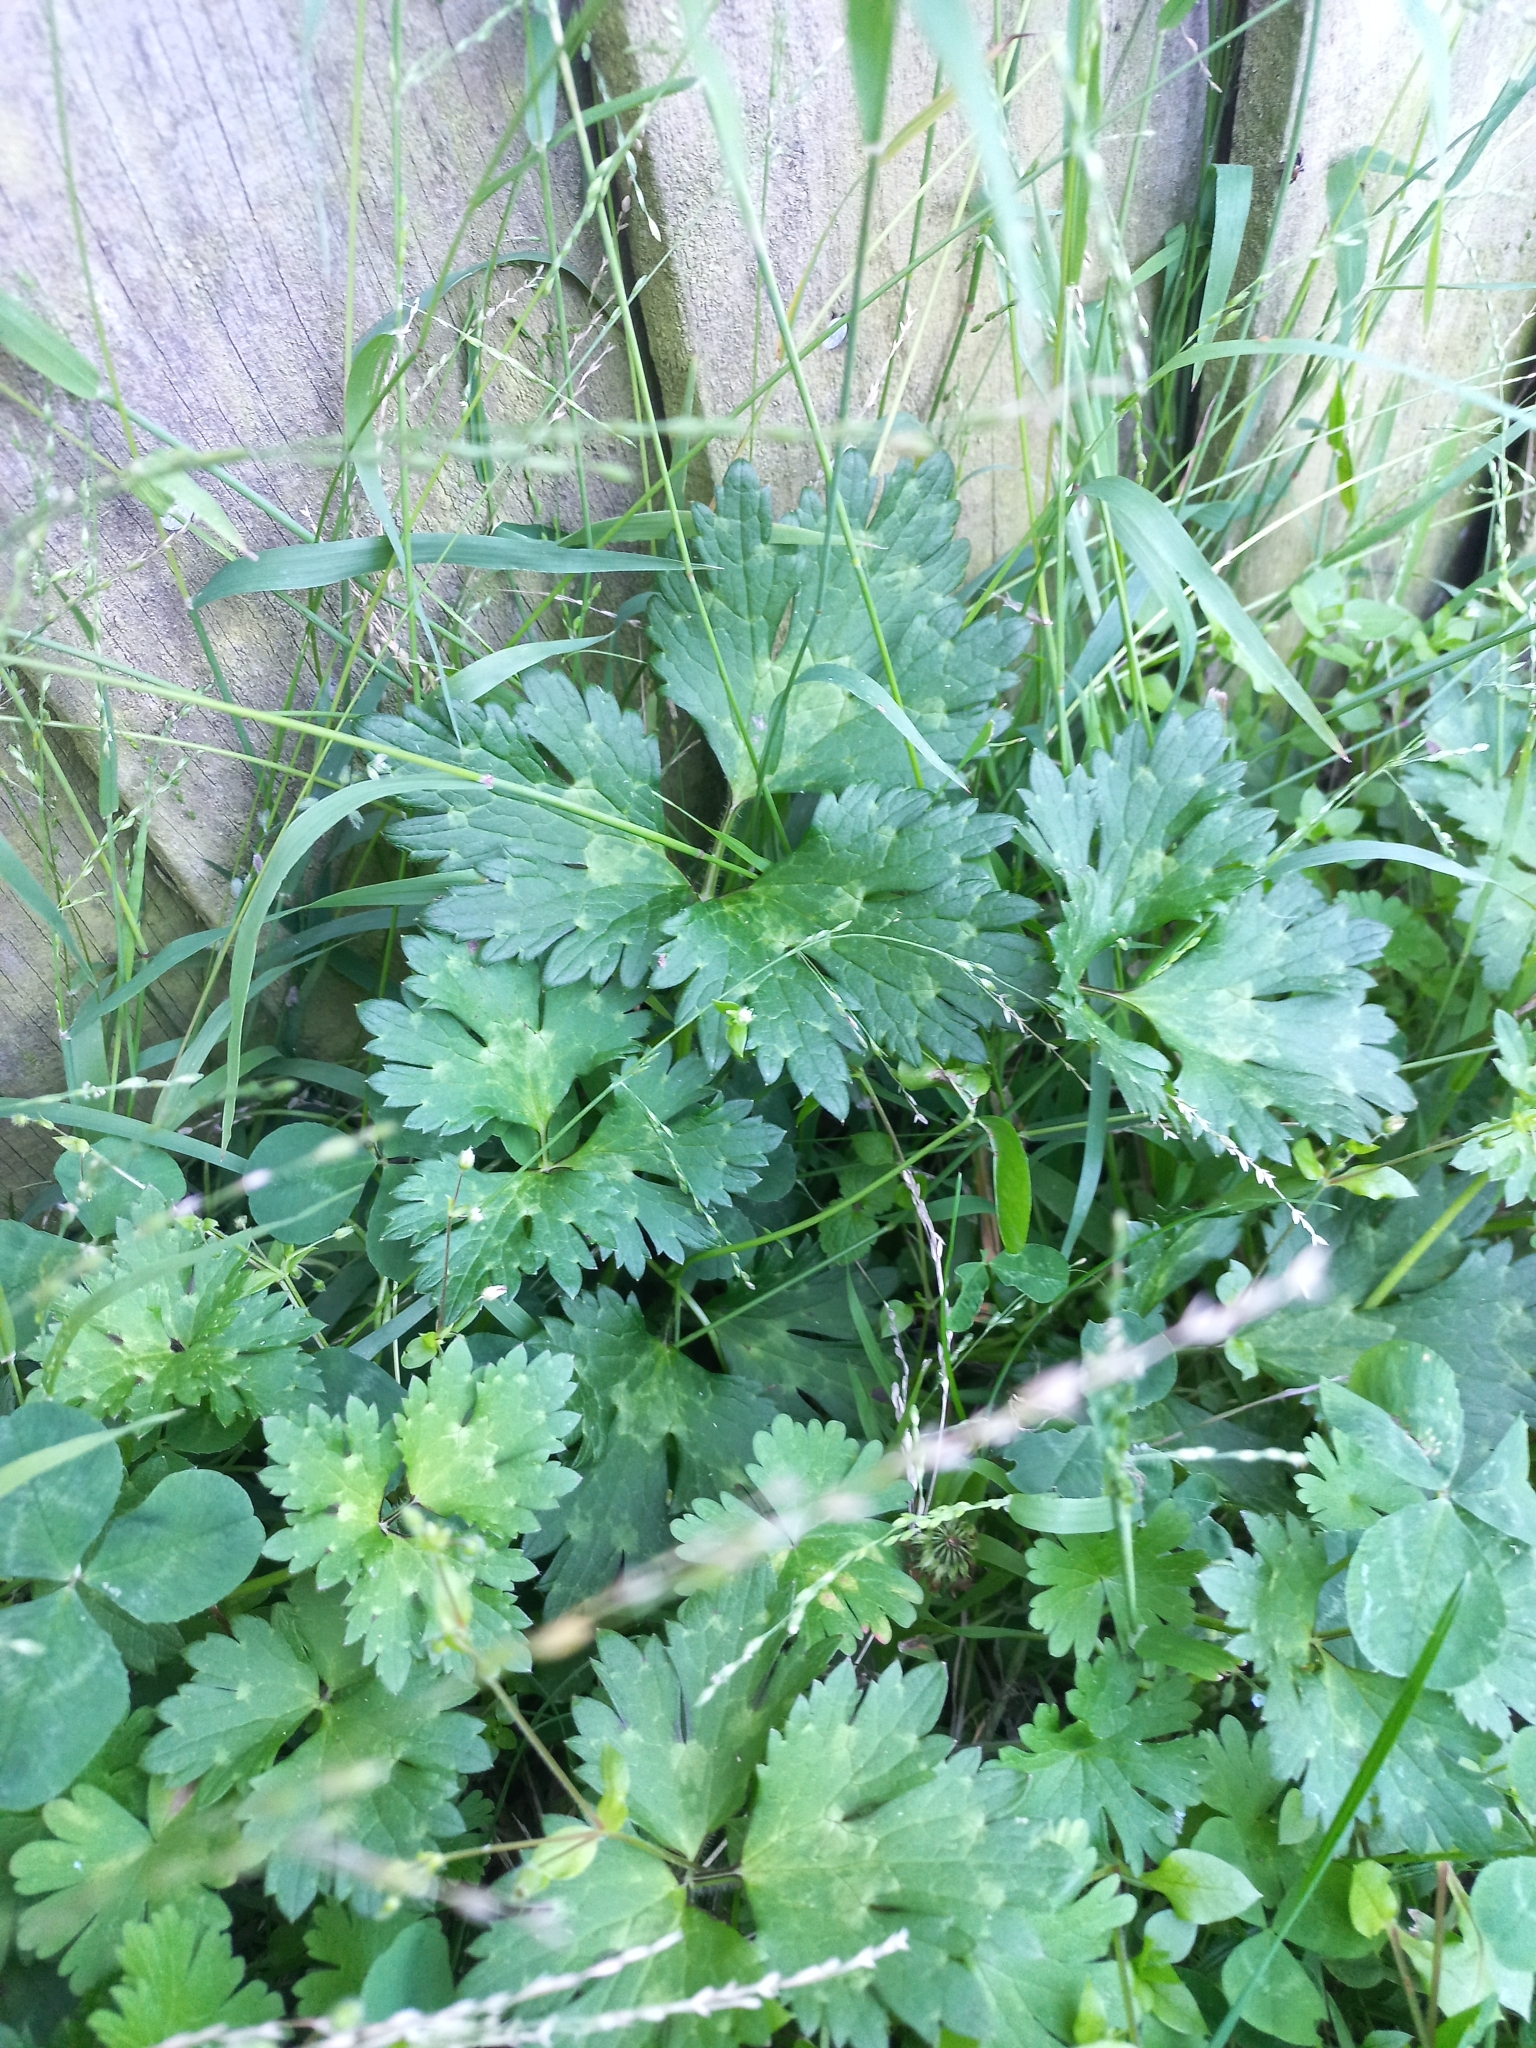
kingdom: Plantae
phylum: Tracheophyta
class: Magnoliopsida
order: Ranunculales
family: Ranunculaceae
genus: Ranunculus
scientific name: Ranunculus repens
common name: Creeping buttercup
